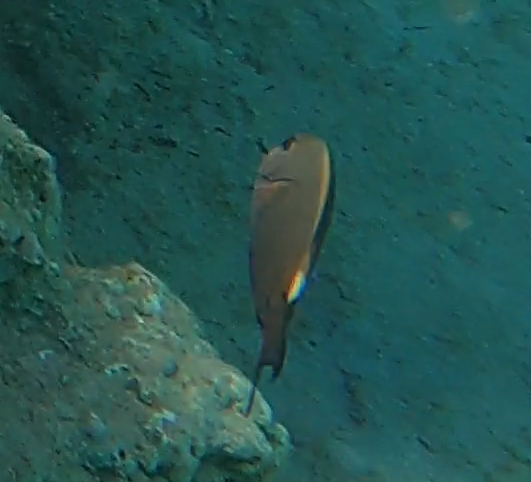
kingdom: Animalia
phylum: Chordata
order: Perciformes
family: Acanthuridae
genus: Ctenochaetus
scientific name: Ctenochaetus striatus
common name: Bristle-toothed surgeonfish
